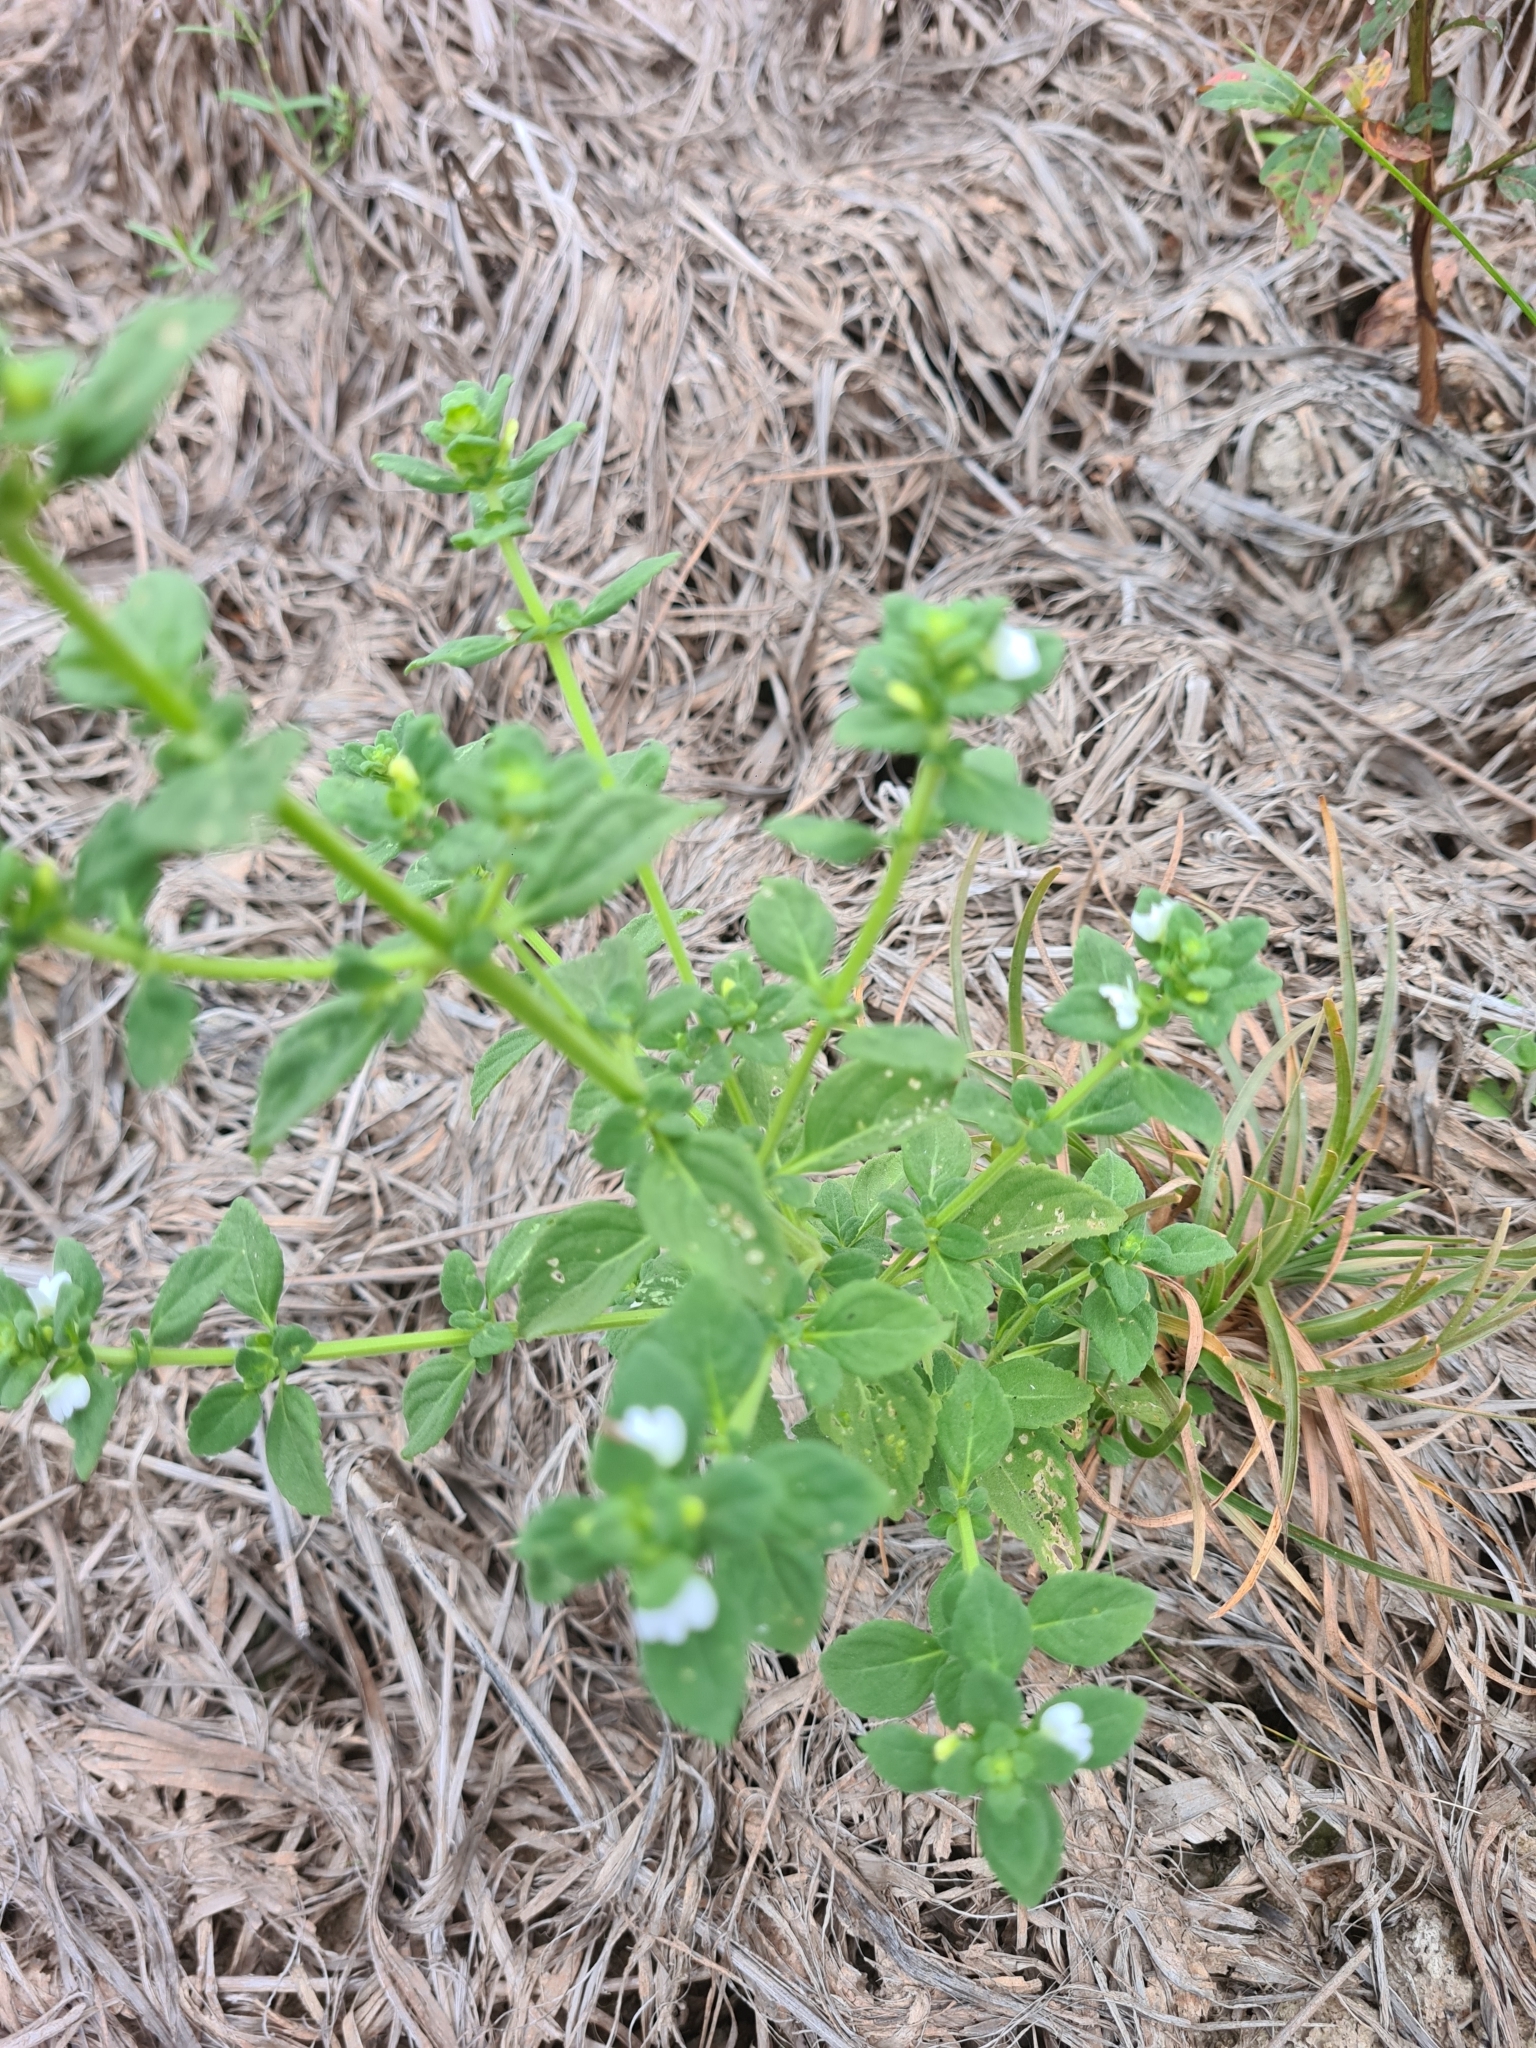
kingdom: Plantae
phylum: Tracheophyta
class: Magnoliopsida
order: Lamiales
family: Plantaginaceae
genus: Matourea
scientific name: Matourea pratensis
